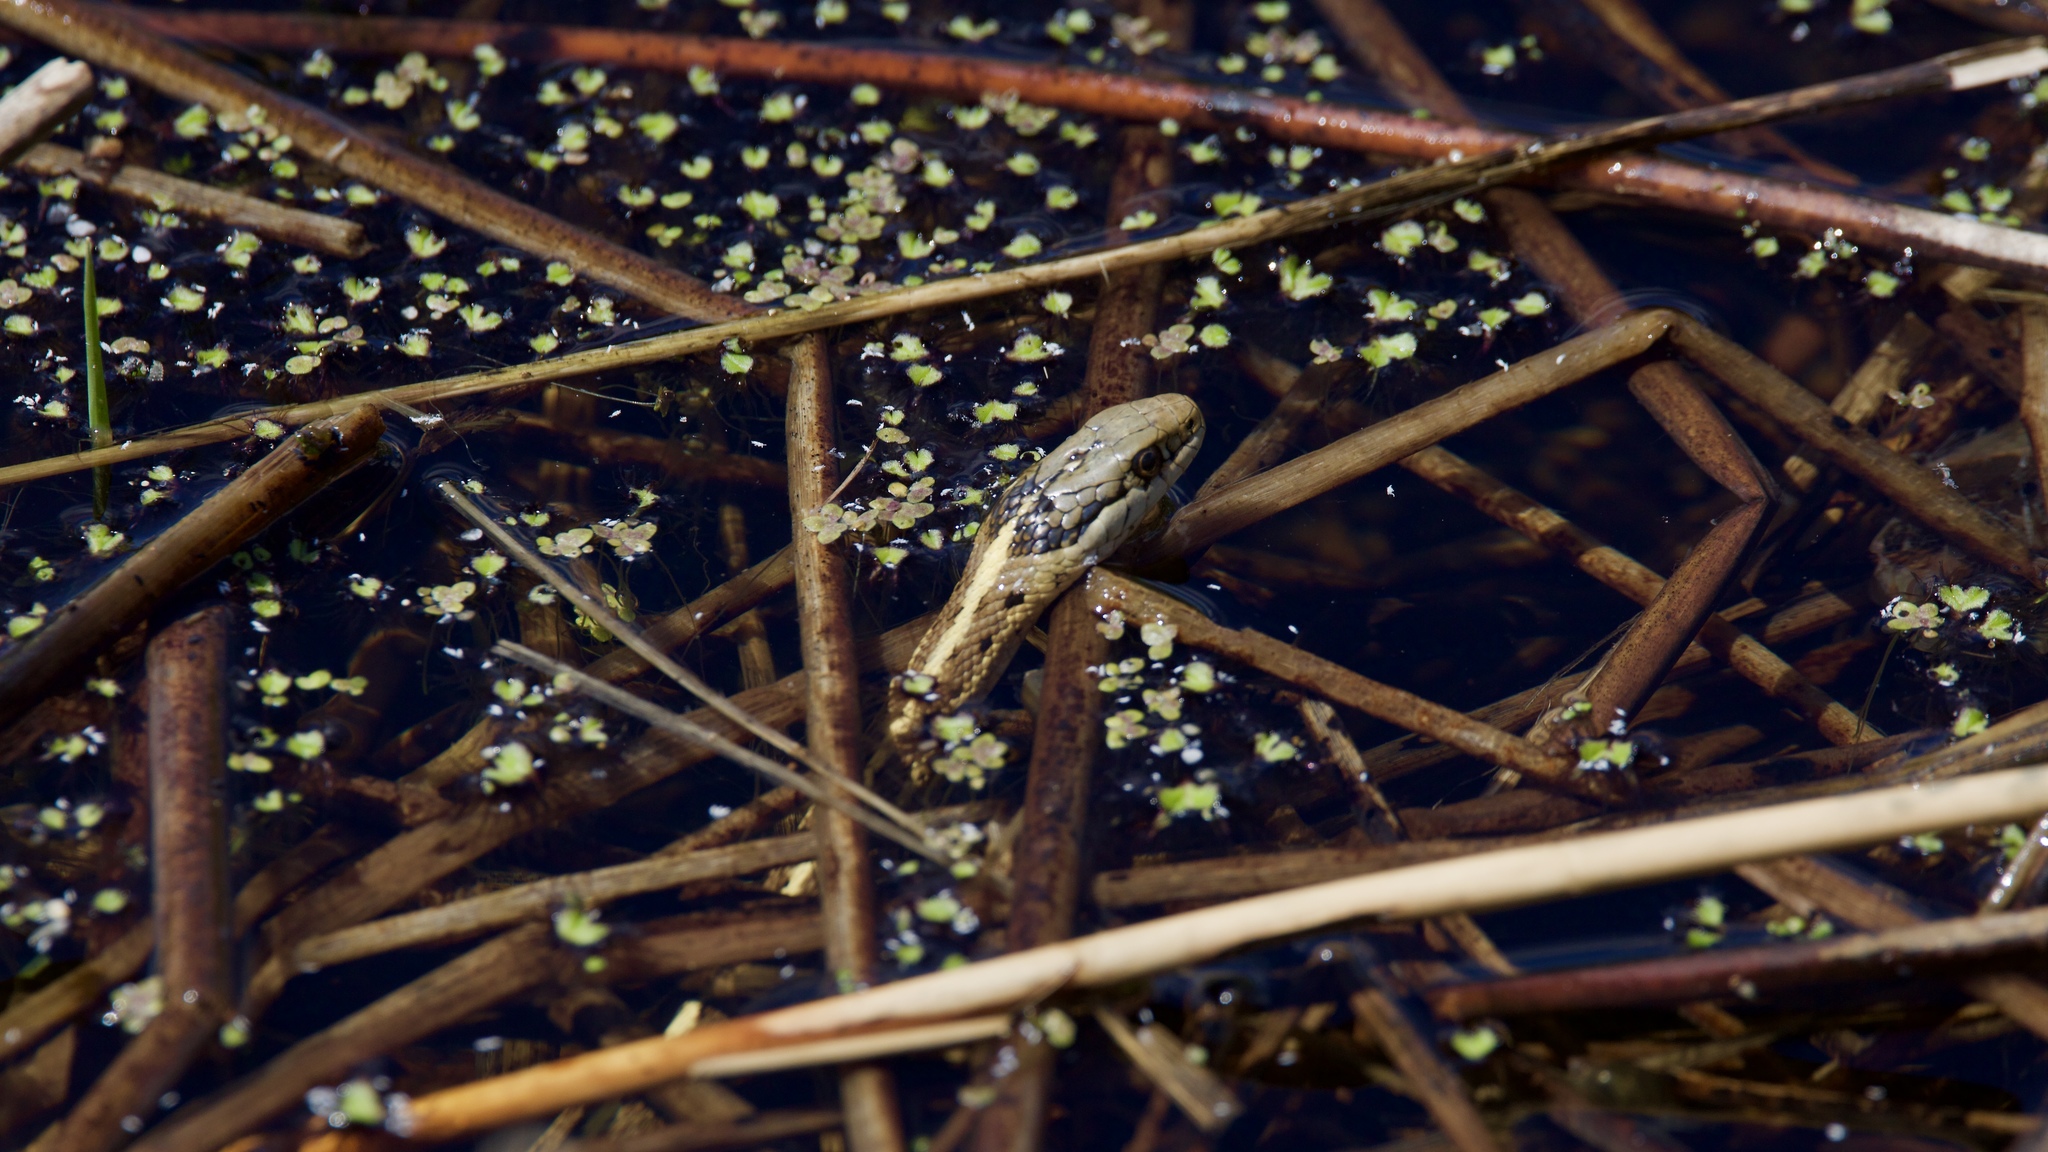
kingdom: Animalia
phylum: Chordata
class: Squamata
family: Colubridae
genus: Thamnophis
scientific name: Thamnophis elegans
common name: Western terrestrial garter snake
